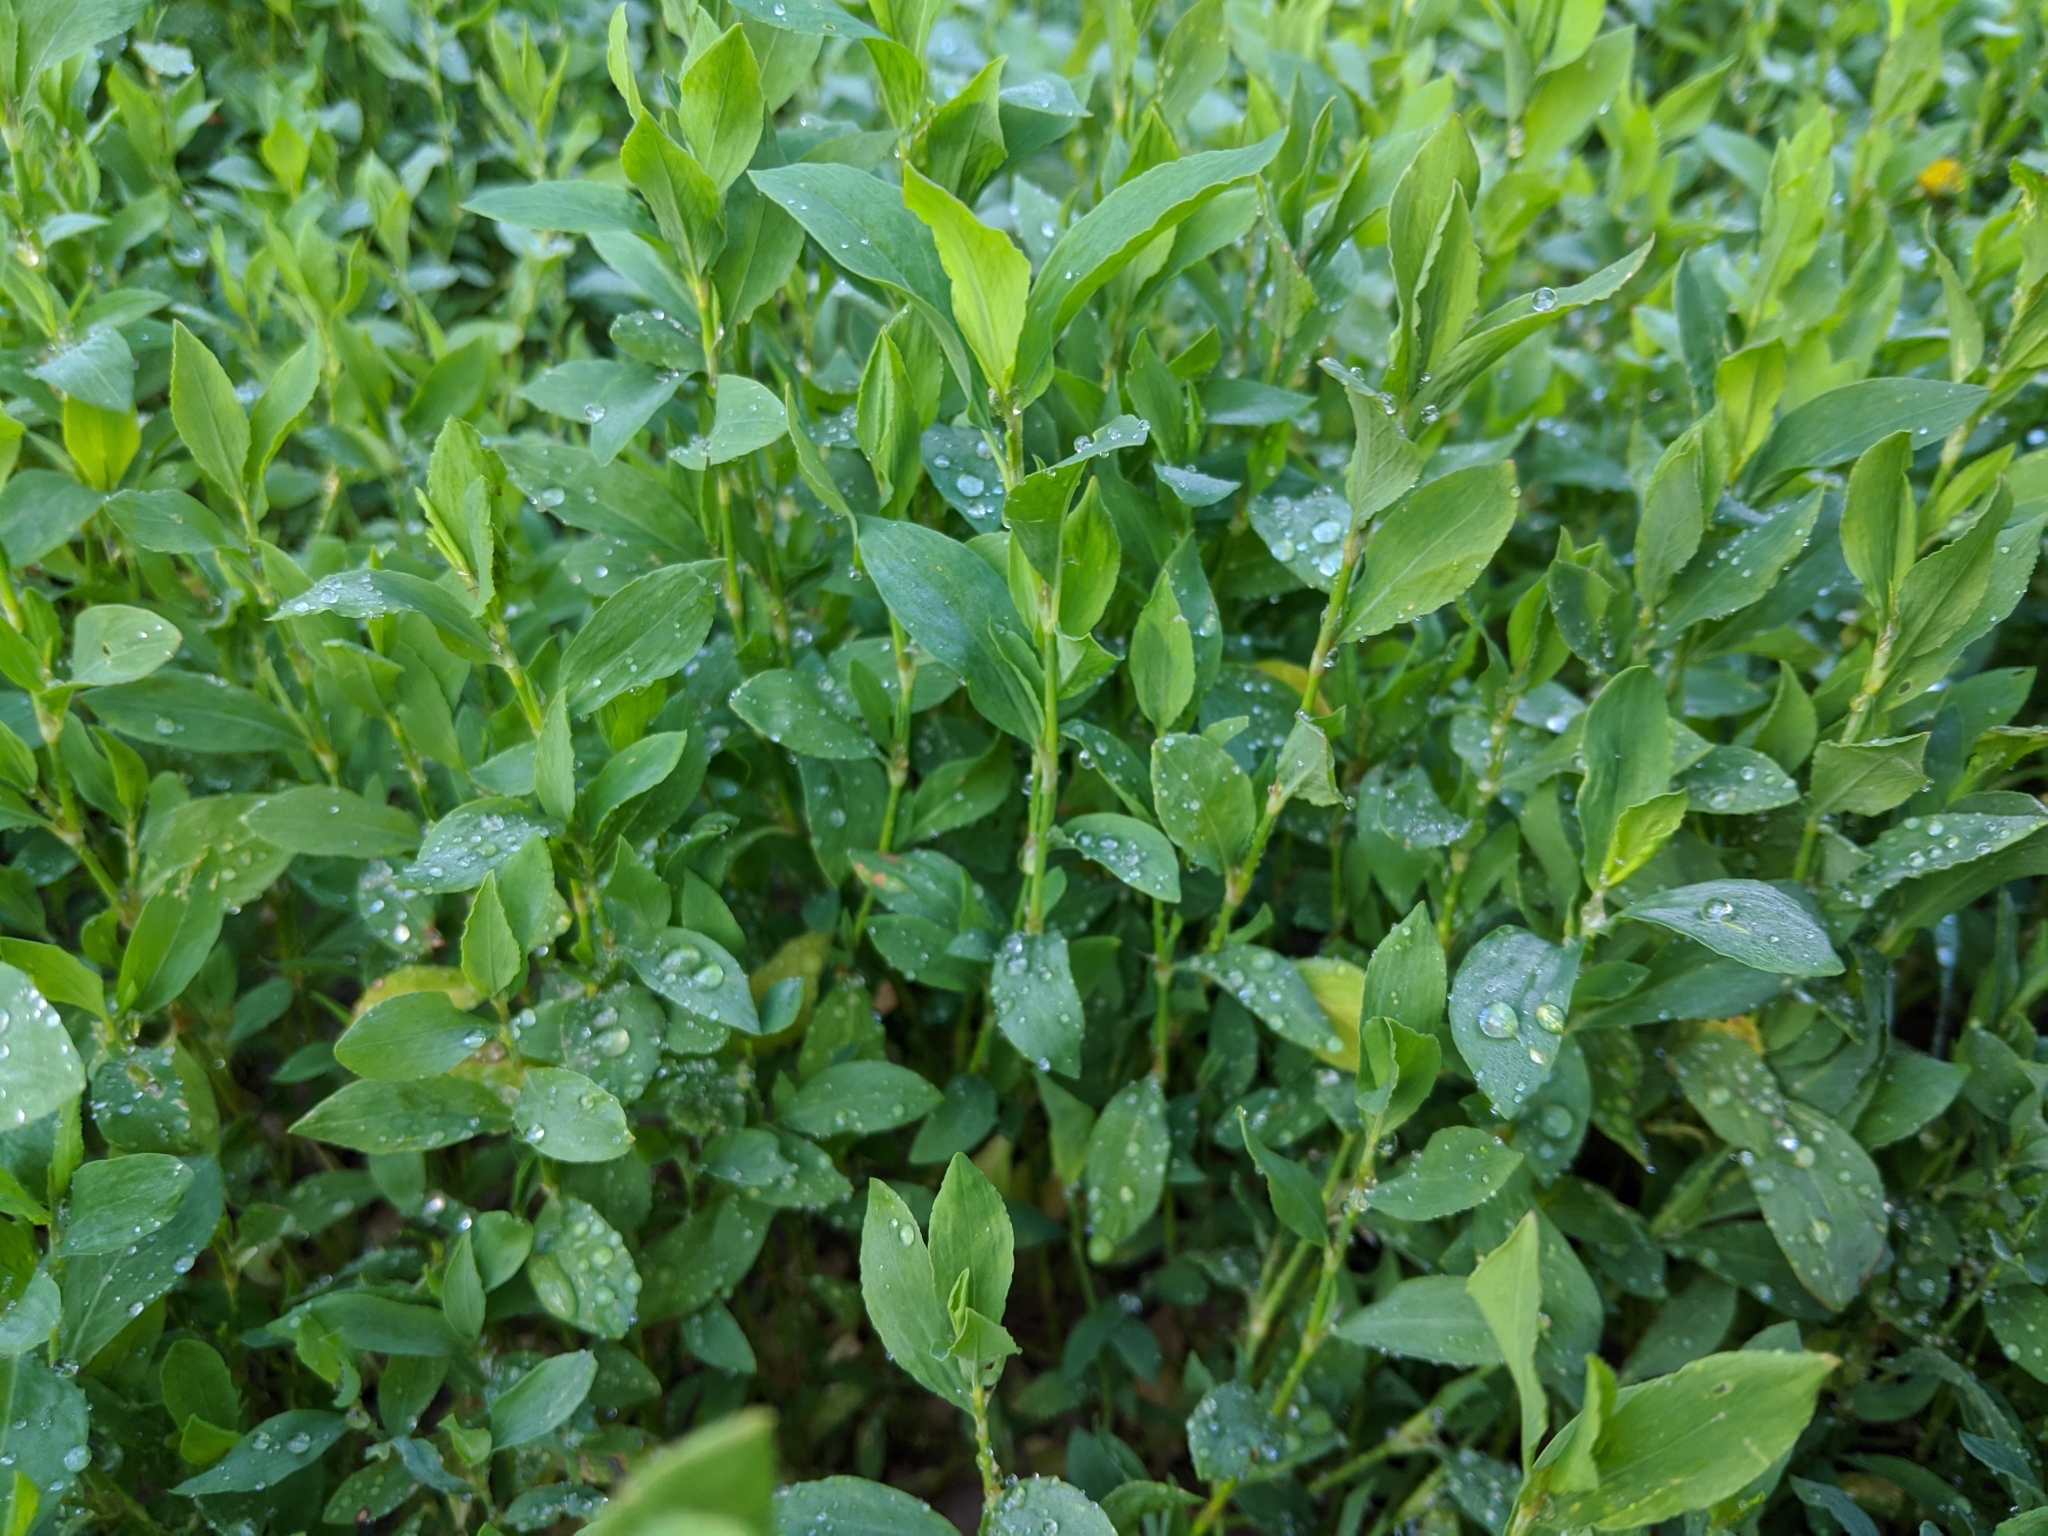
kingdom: Plantae
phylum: Tracheophyta
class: Magnoliopsida
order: Caryophyllales
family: Polygonaceae
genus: Polygonum
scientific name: Polygonum
